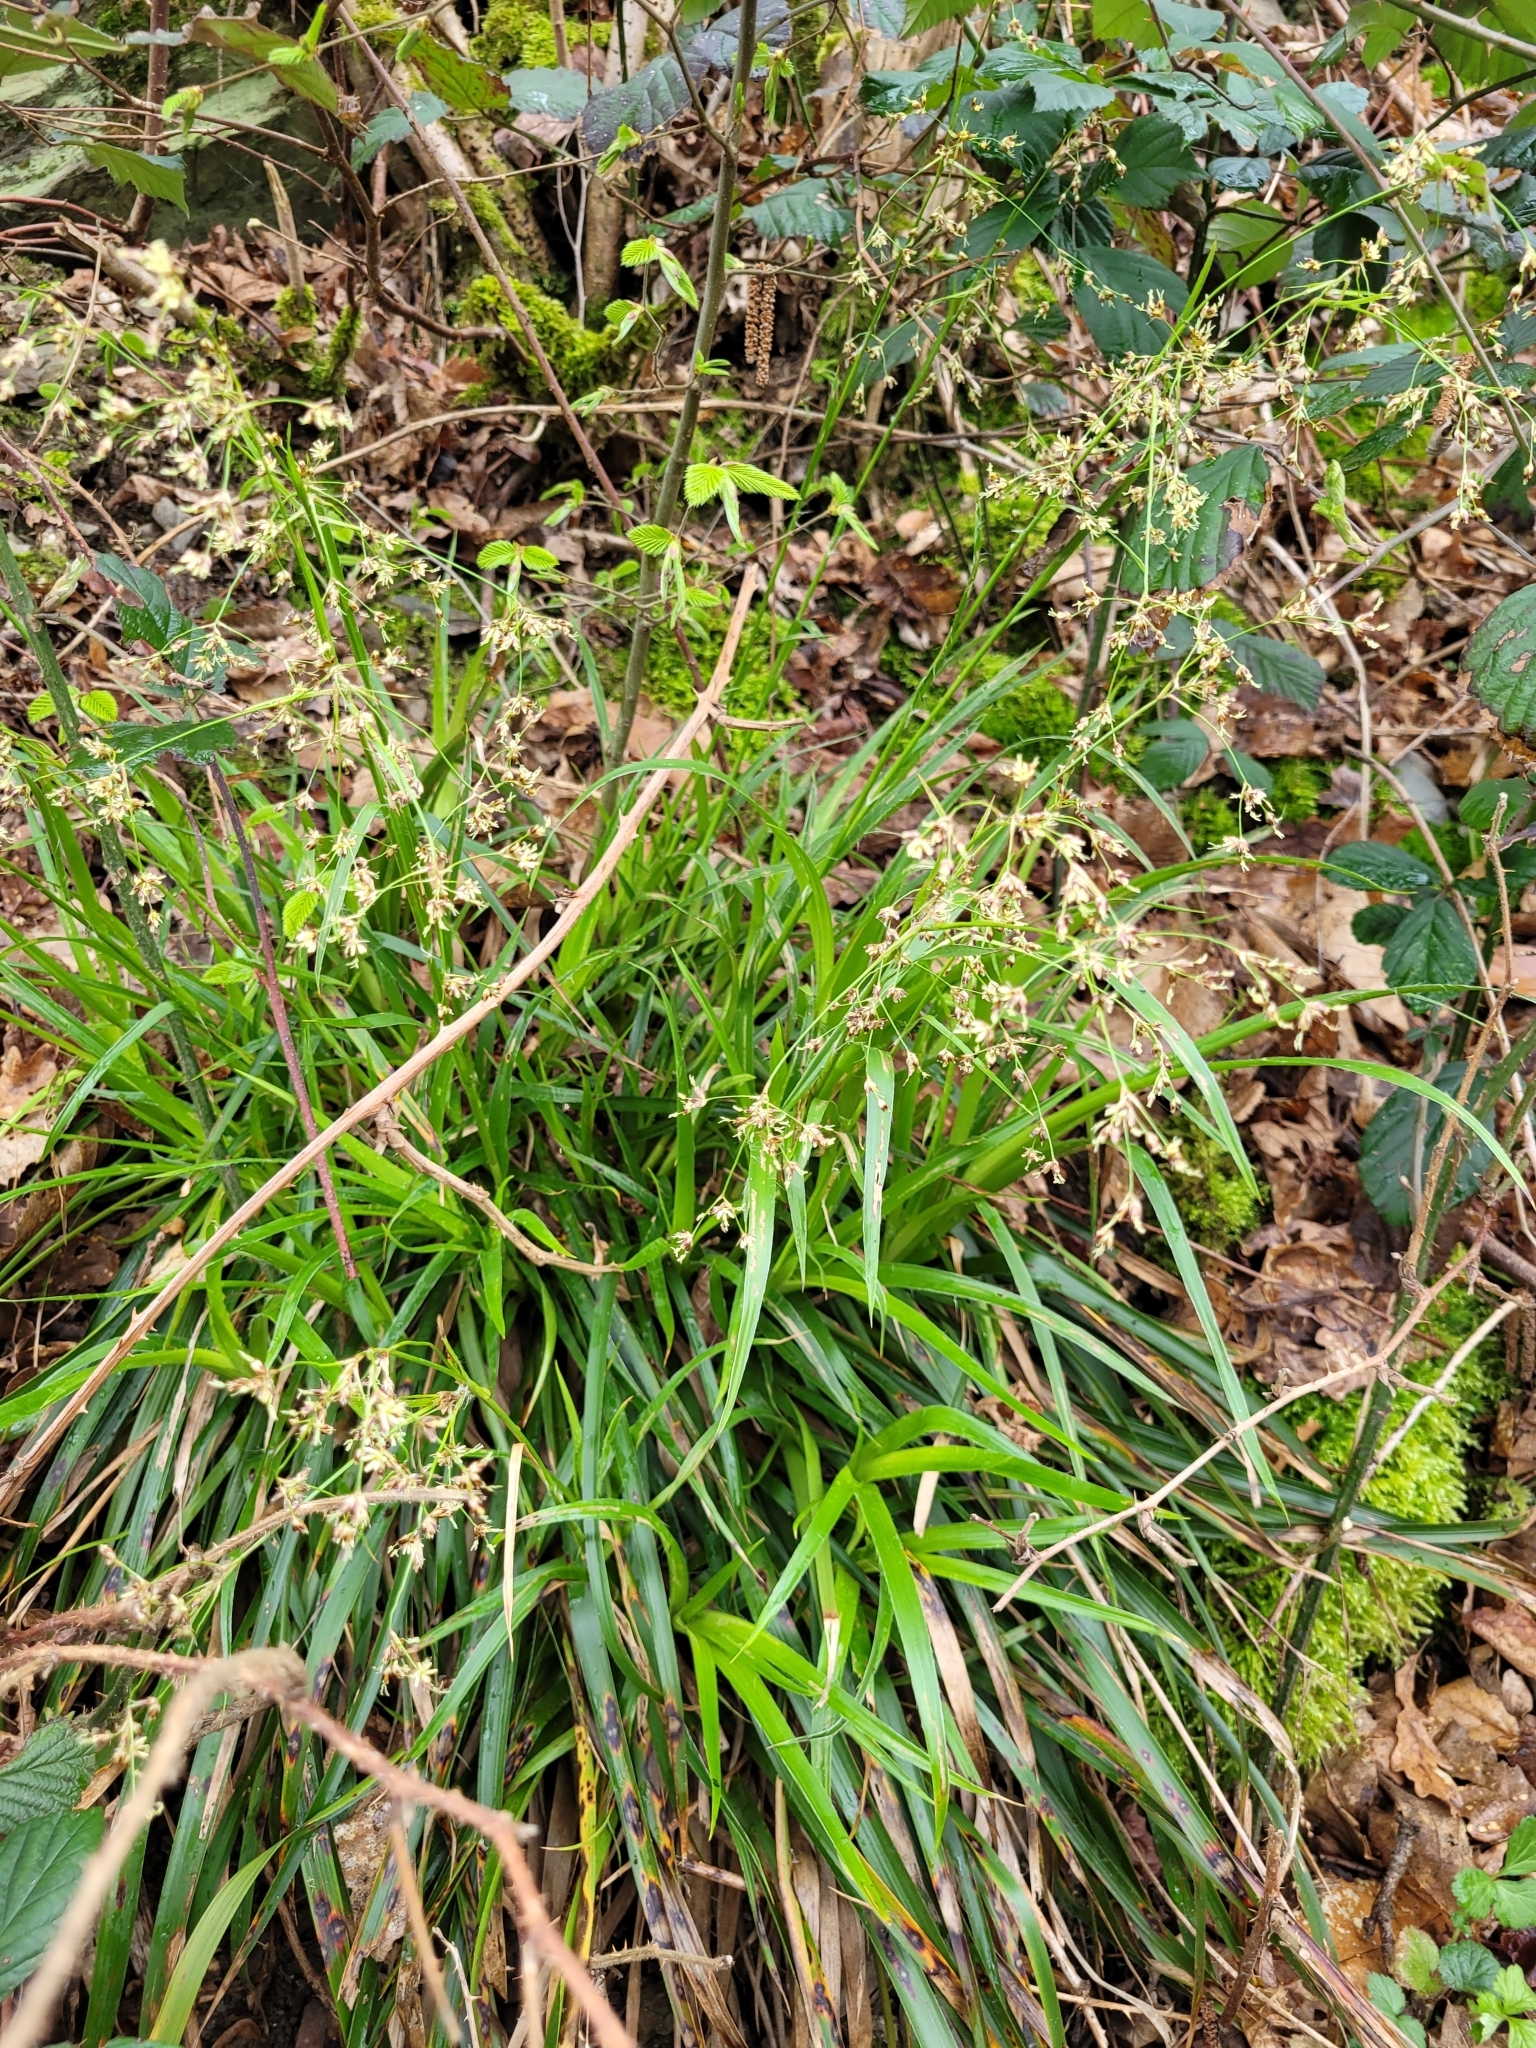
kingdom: Plantae
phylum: Tracheophyta
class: Liliopsida
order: Poales
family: Juncaceae
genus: Luzula
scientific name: Luzula sylvatica
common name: Great wood-rush
